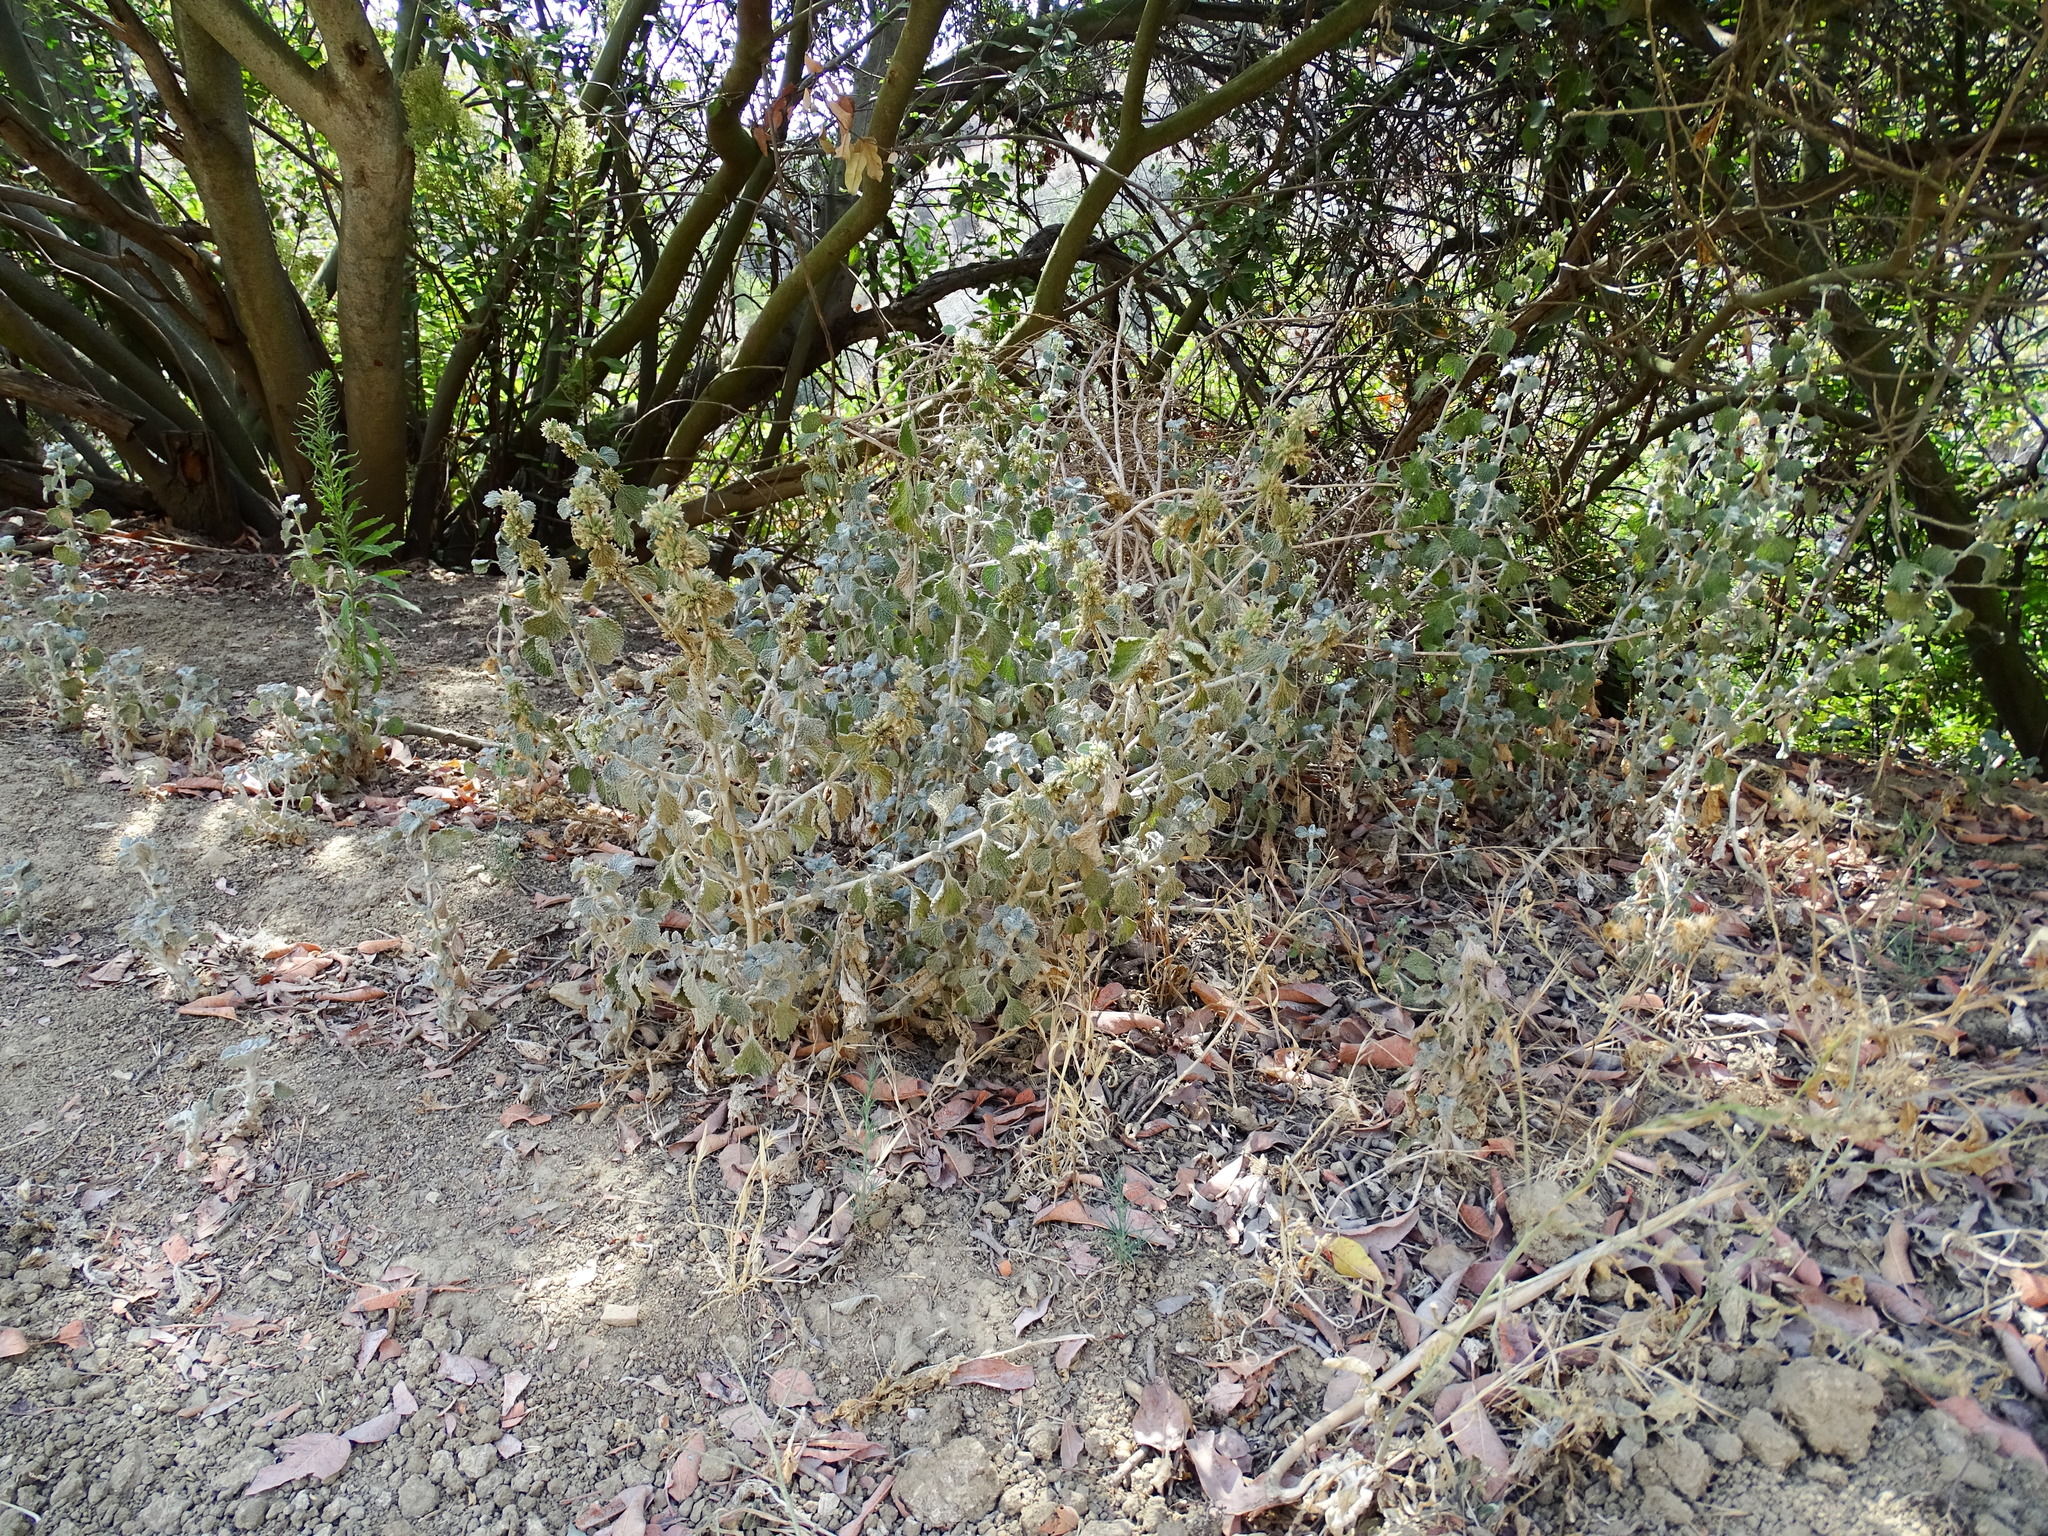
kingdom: Plantae
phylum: Tracheophyta
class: Magnoliopsida
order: Lamiales
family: Lamiaceae
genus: Marrubium
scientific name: Marrubium vulgare
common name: Horehound
